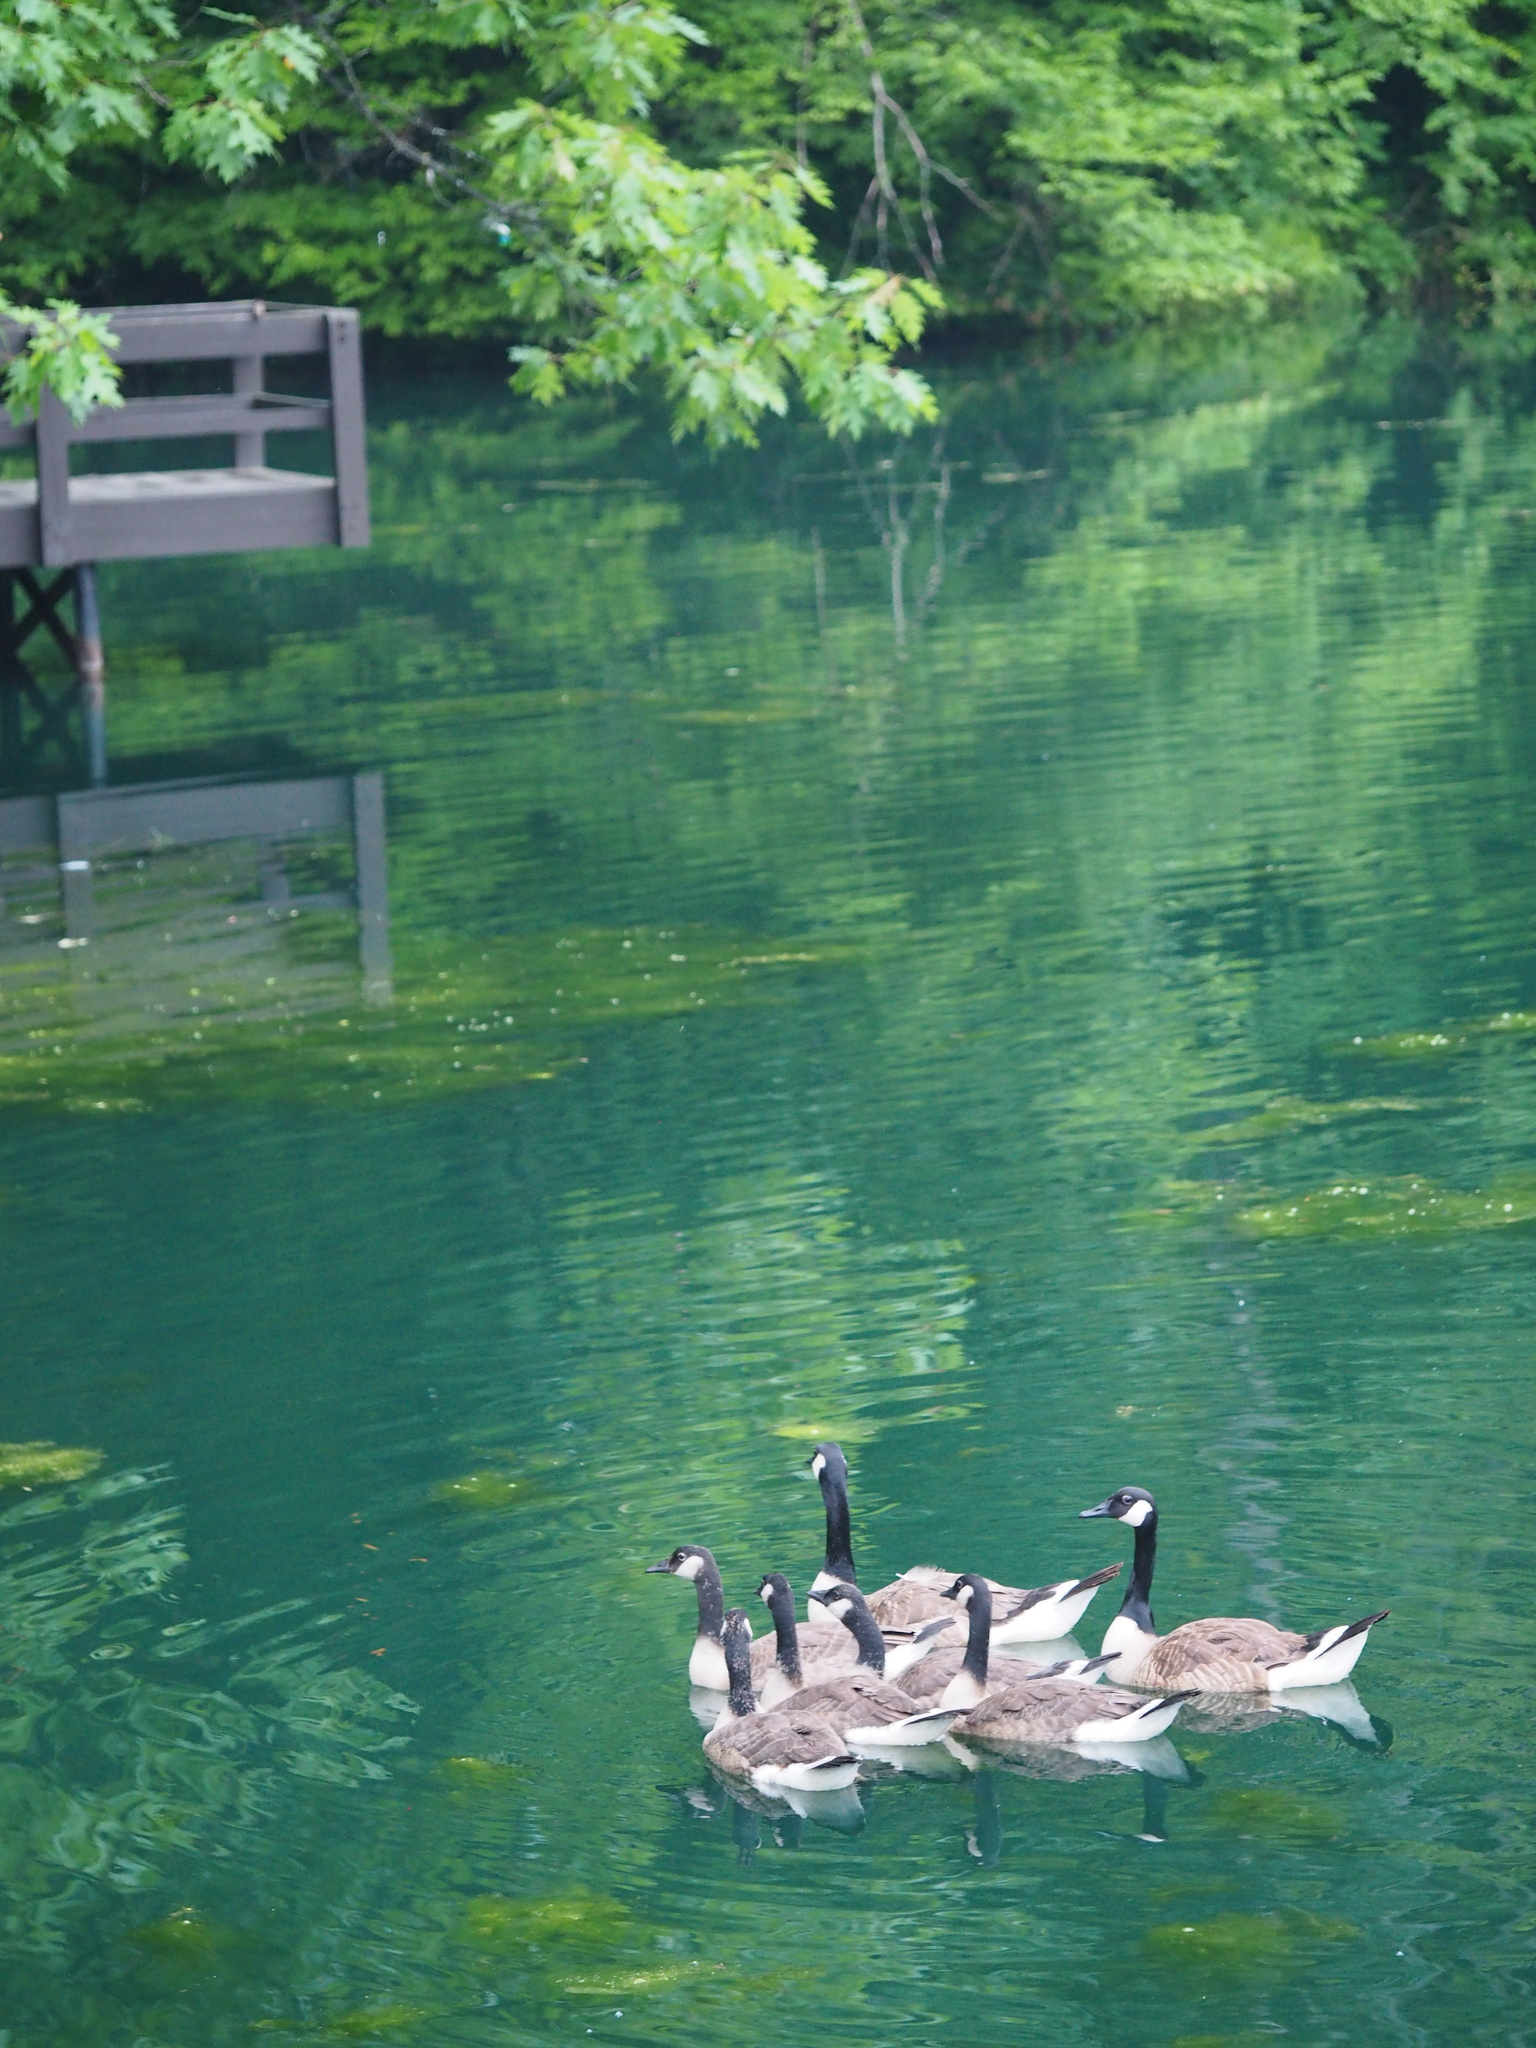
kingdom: Animalia
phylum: Chordata
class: Aves
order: Anseriformes
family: Anatidae
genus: Branta
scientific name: Branta canadensis
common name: Canada goose
